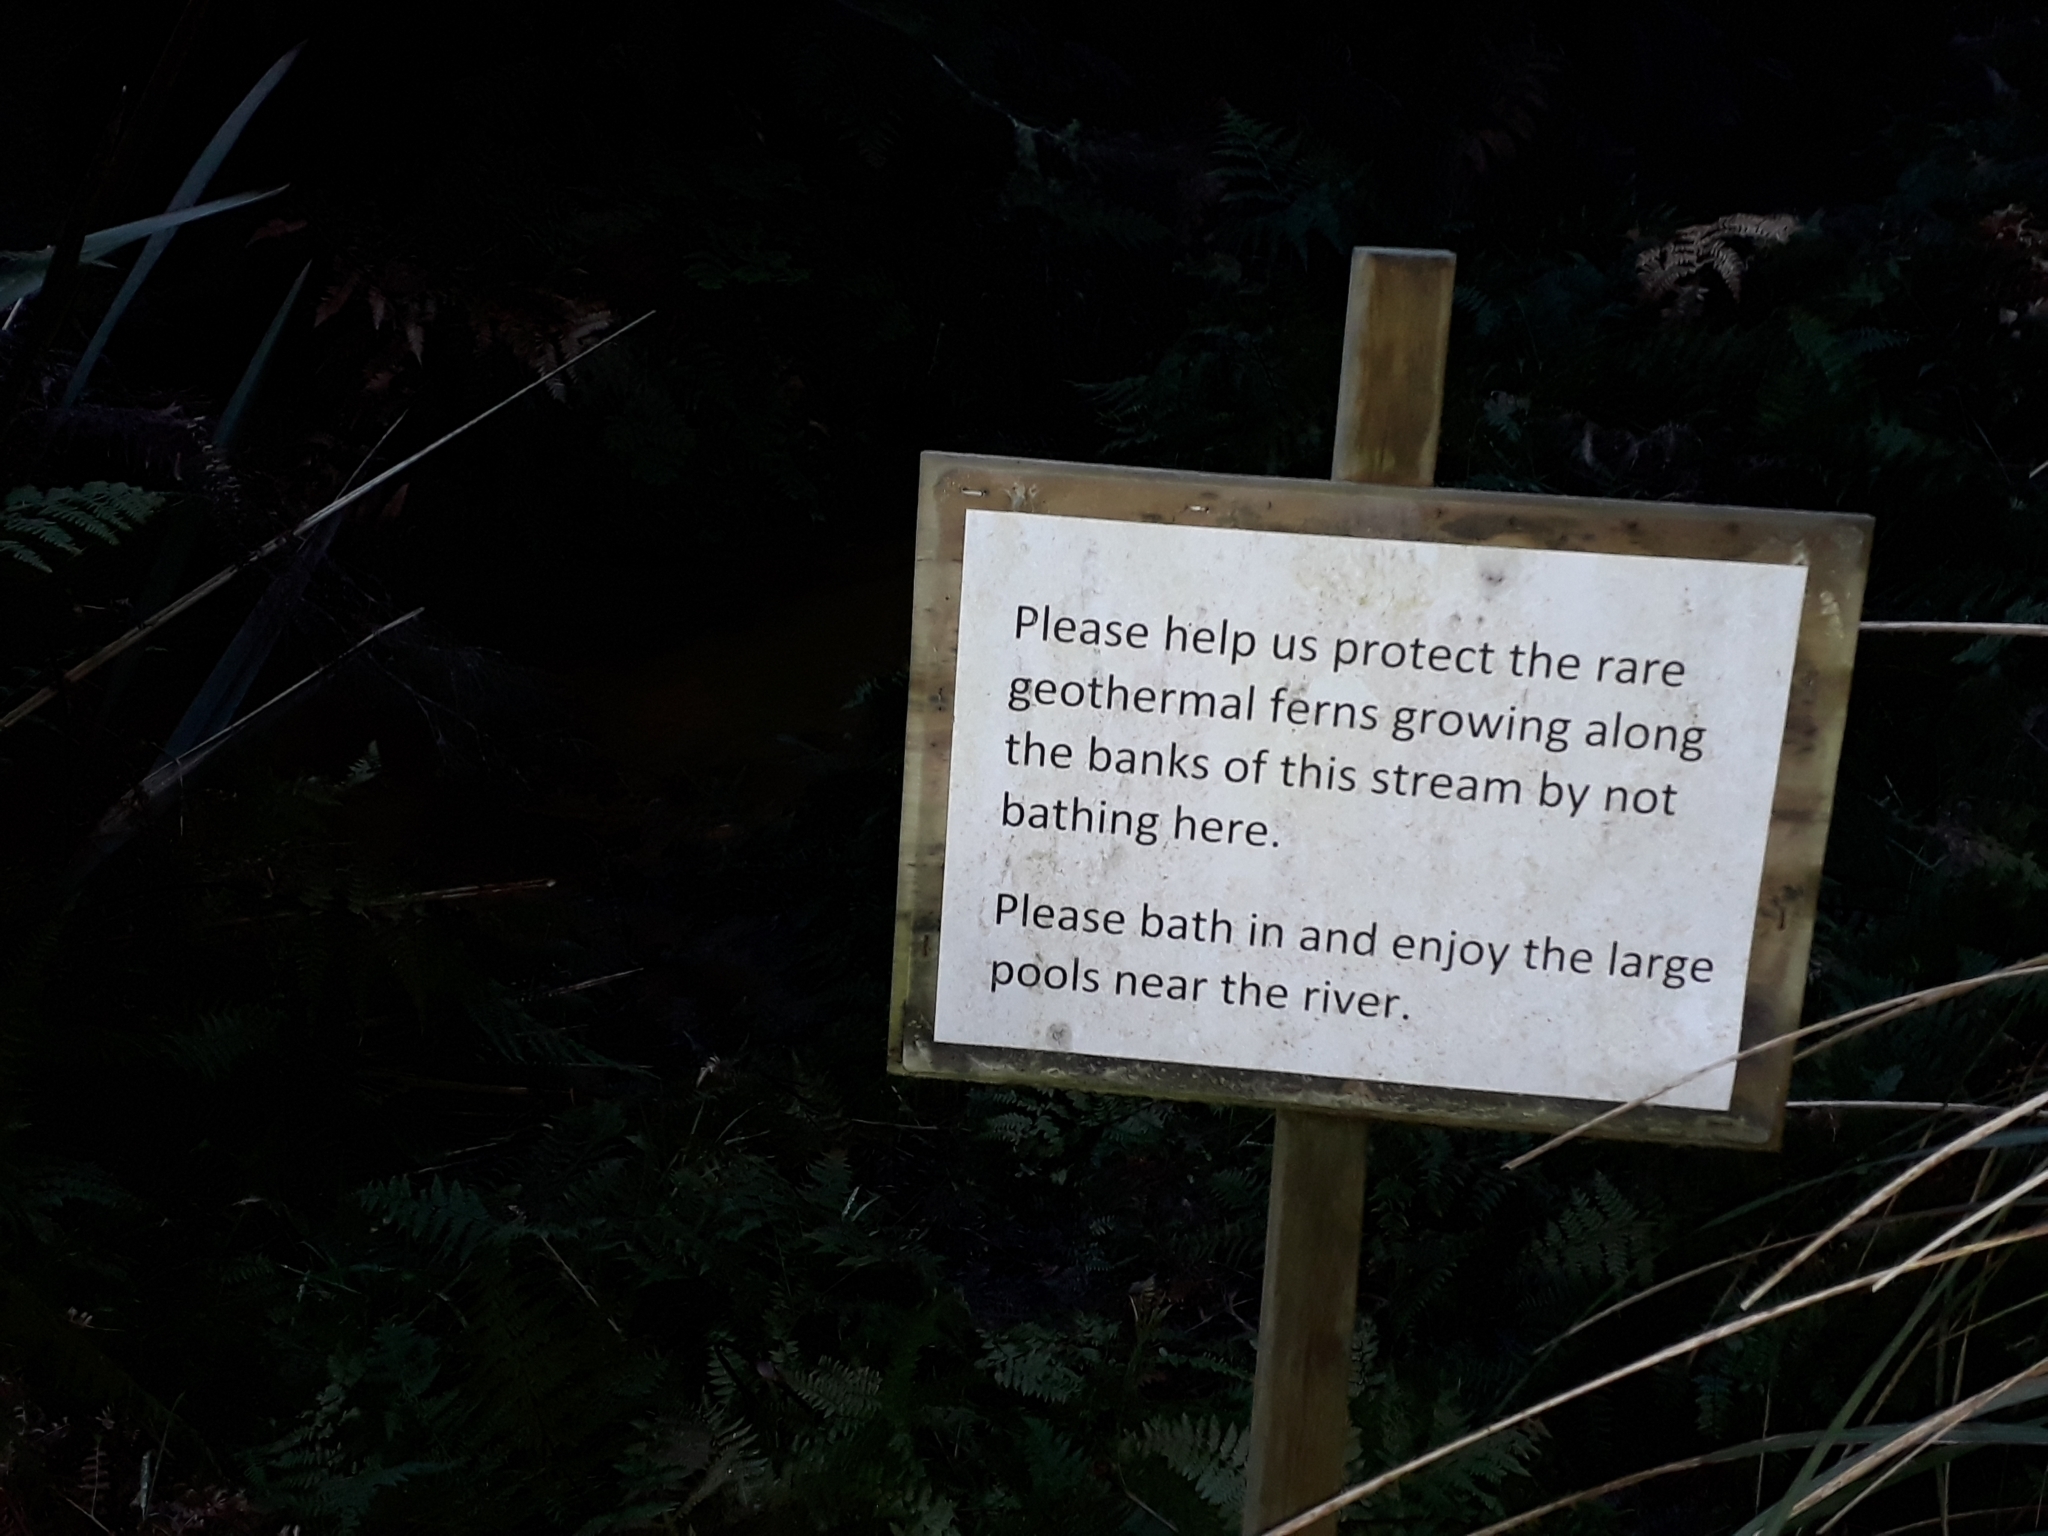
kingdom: Plantae
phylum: Tracheophyta
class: Polypodiopsida
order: Polypodiales
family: Pteridaceae
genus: Pteris
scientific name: Pteris cretica
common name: Ribbon fern
